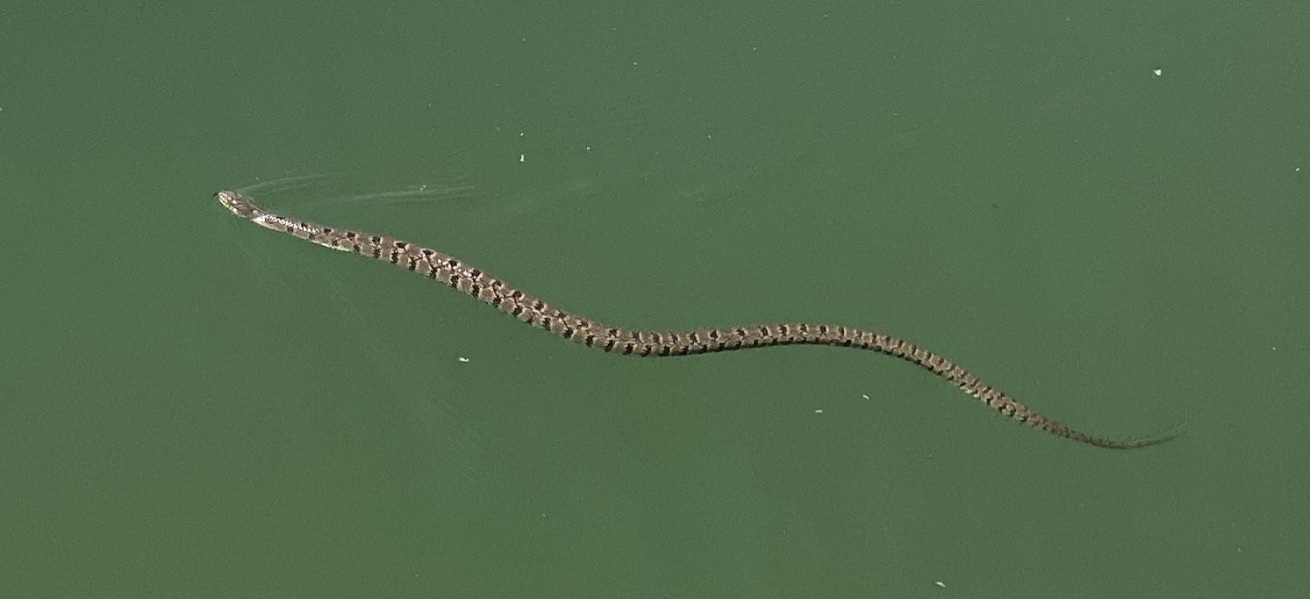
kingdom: Animalia
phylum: Chordata
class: Squamata
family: Colubridae
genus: Nerodia
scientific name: Nerodia rhombifer
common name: Diamondback water snake
